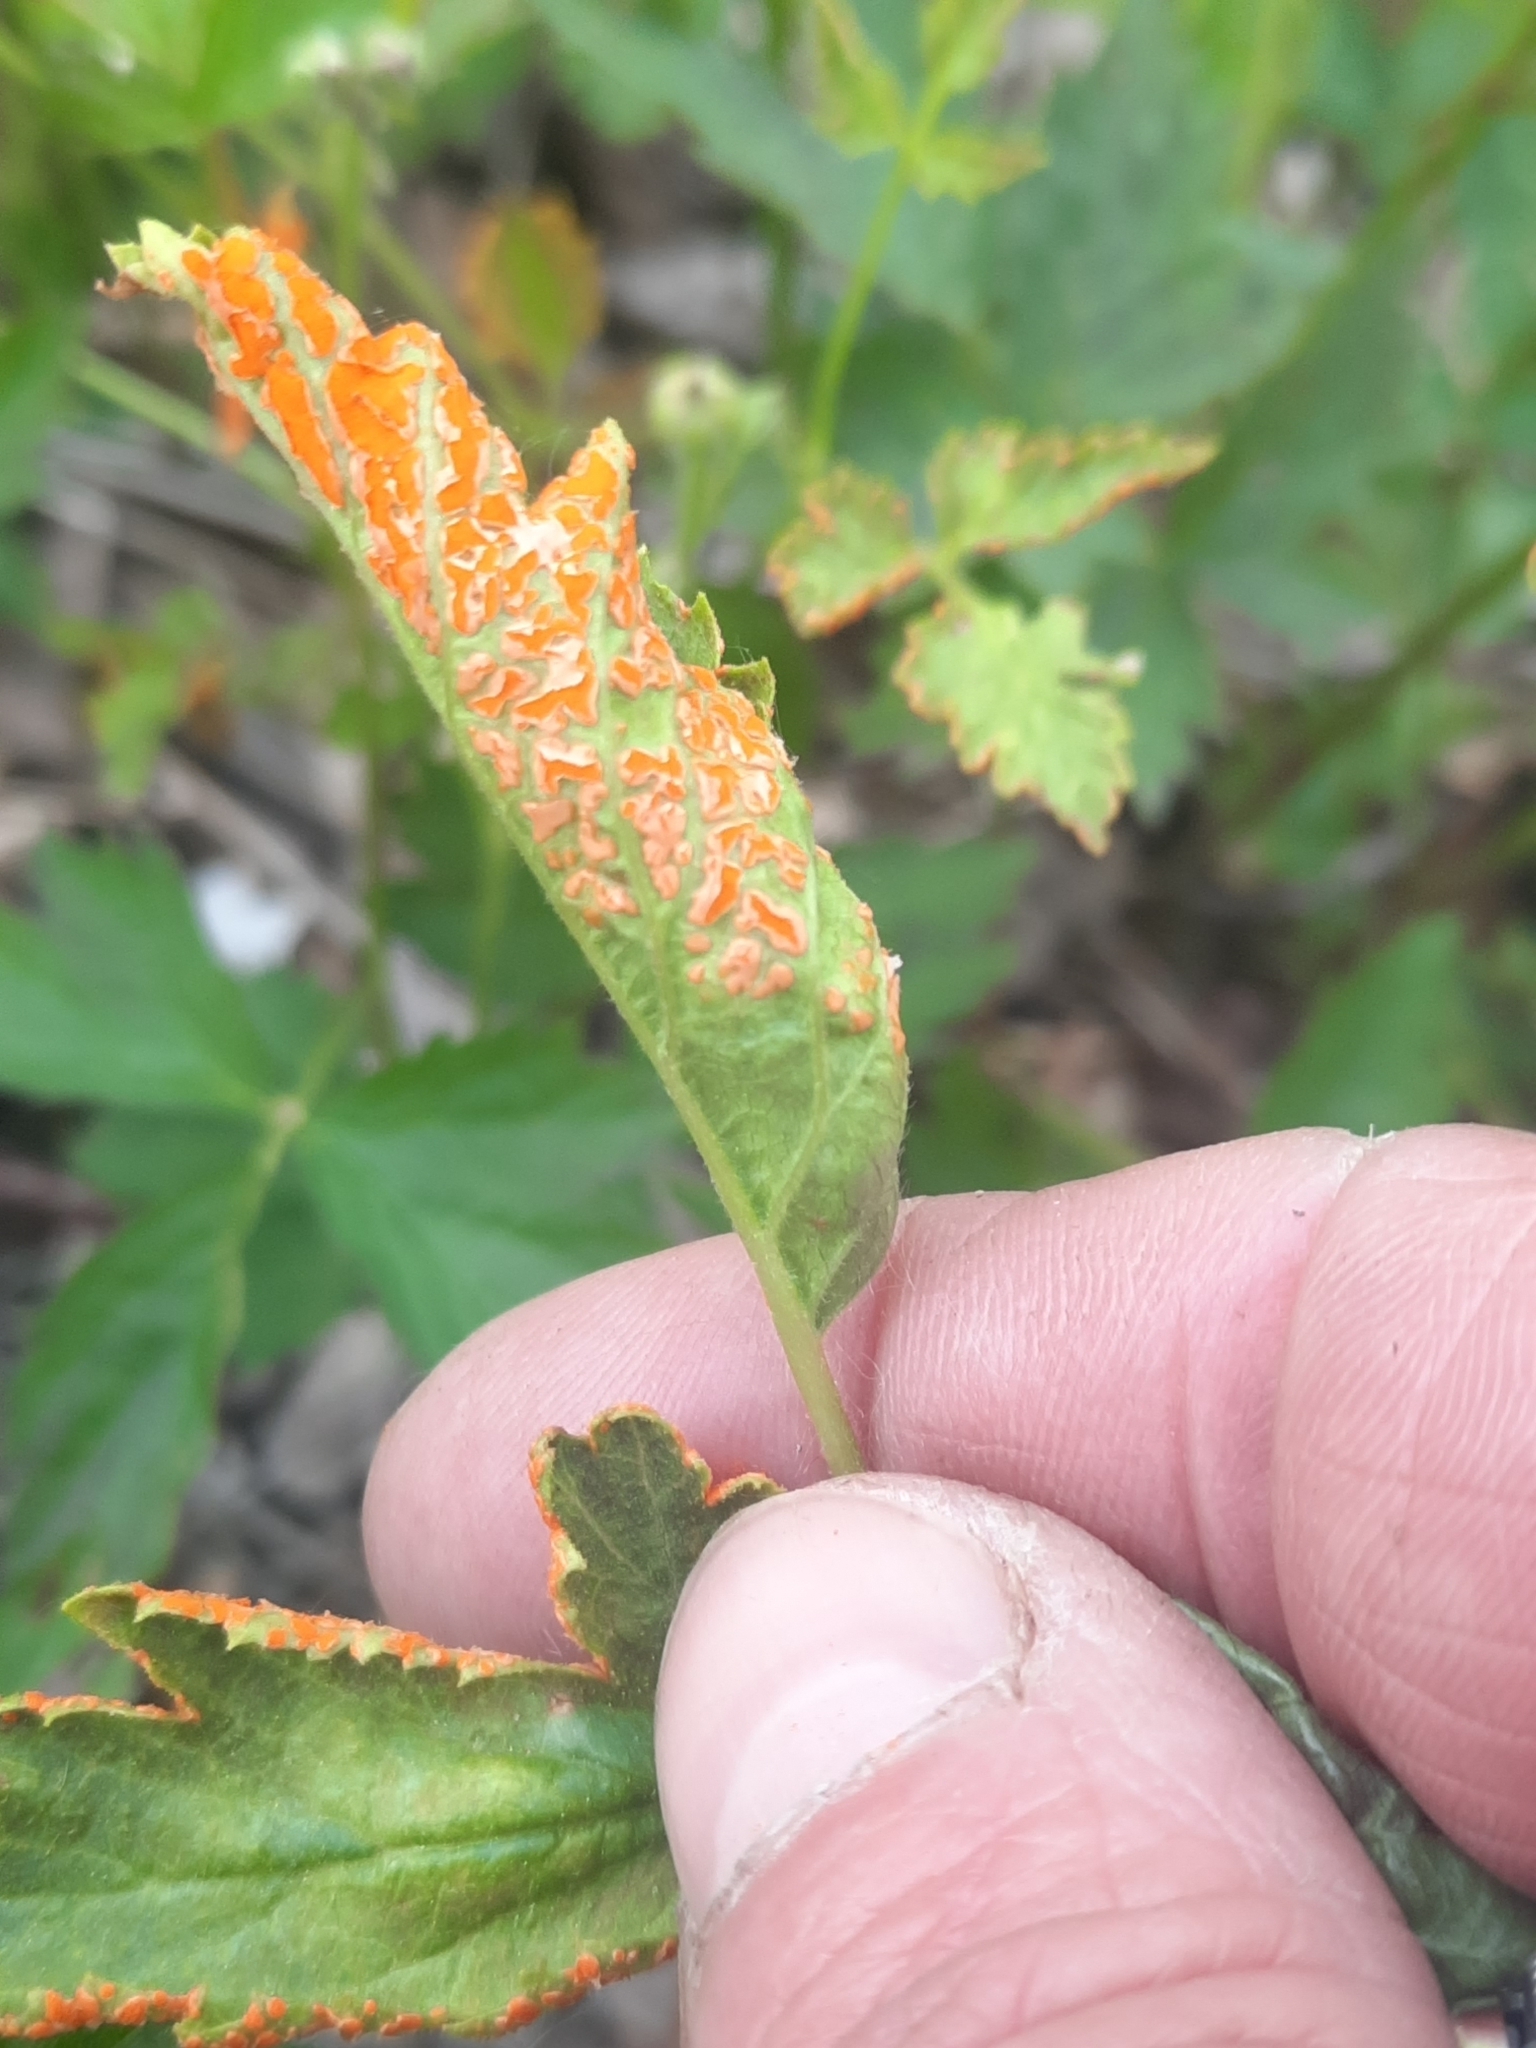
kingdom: Fungi
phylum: Basidiomycota
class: Pucciniomycetes
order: Pucciniales
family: Phragmidiaceae
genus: Arthuriomyces
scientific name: Arthuriomyces peckianus
